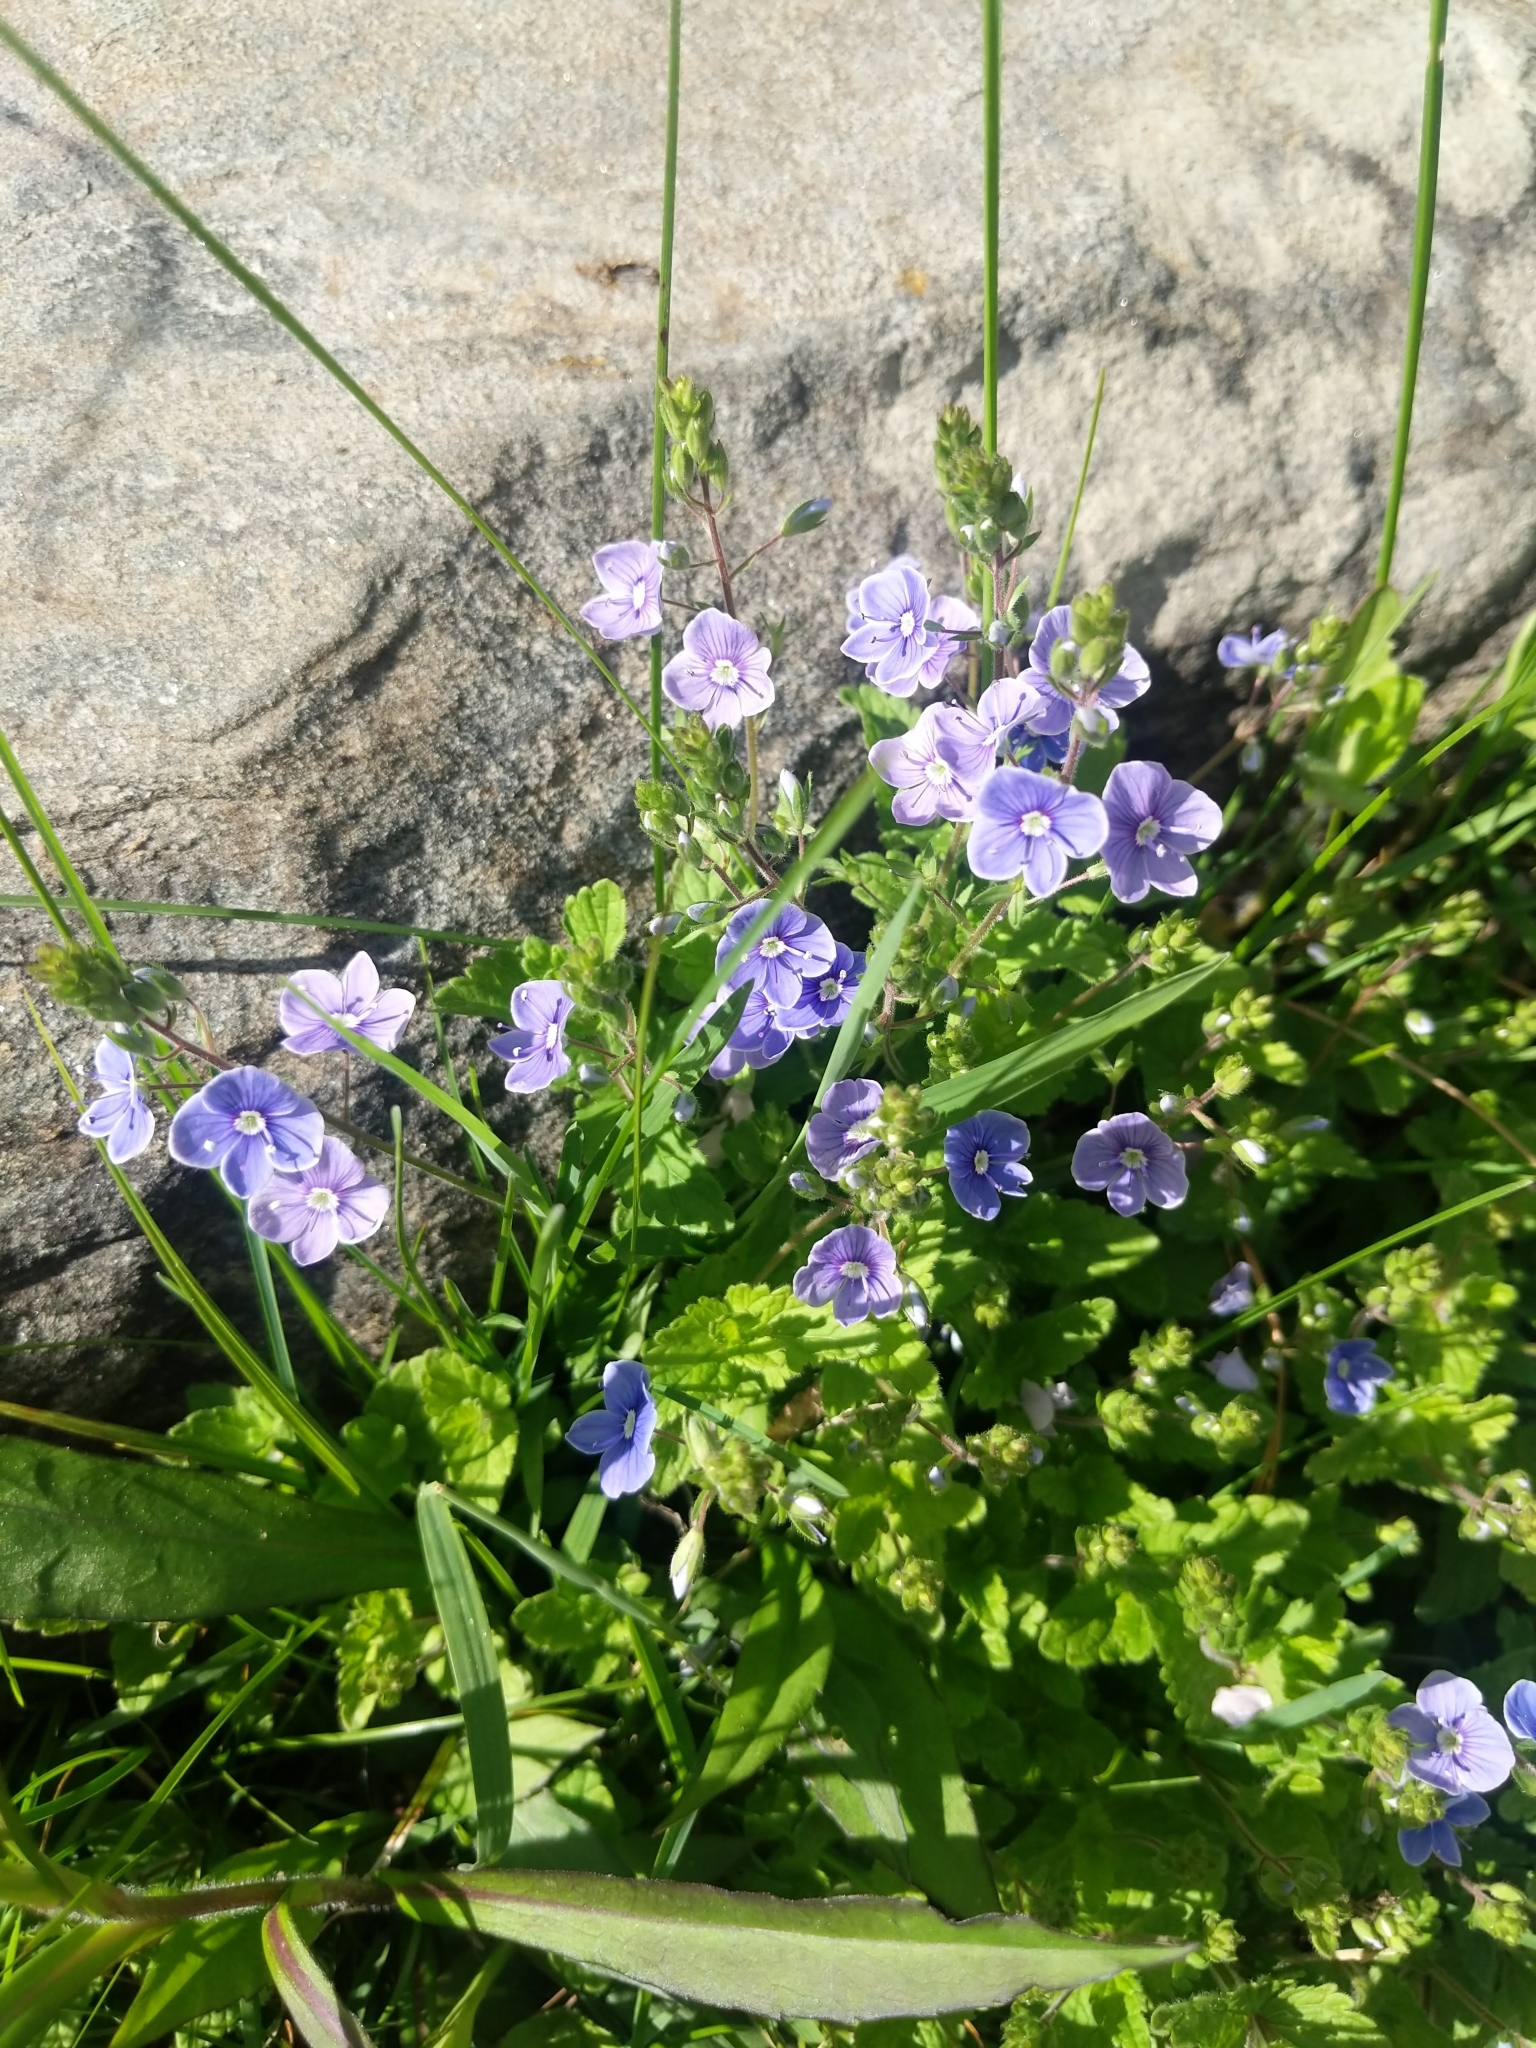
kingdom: Plantae
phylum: Tracheophyta
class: Magnoliopsida
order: Lamiales
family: Plantaginaceae
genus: Veronica
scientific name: Veronica chamaedrys
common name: Germander speedwell
